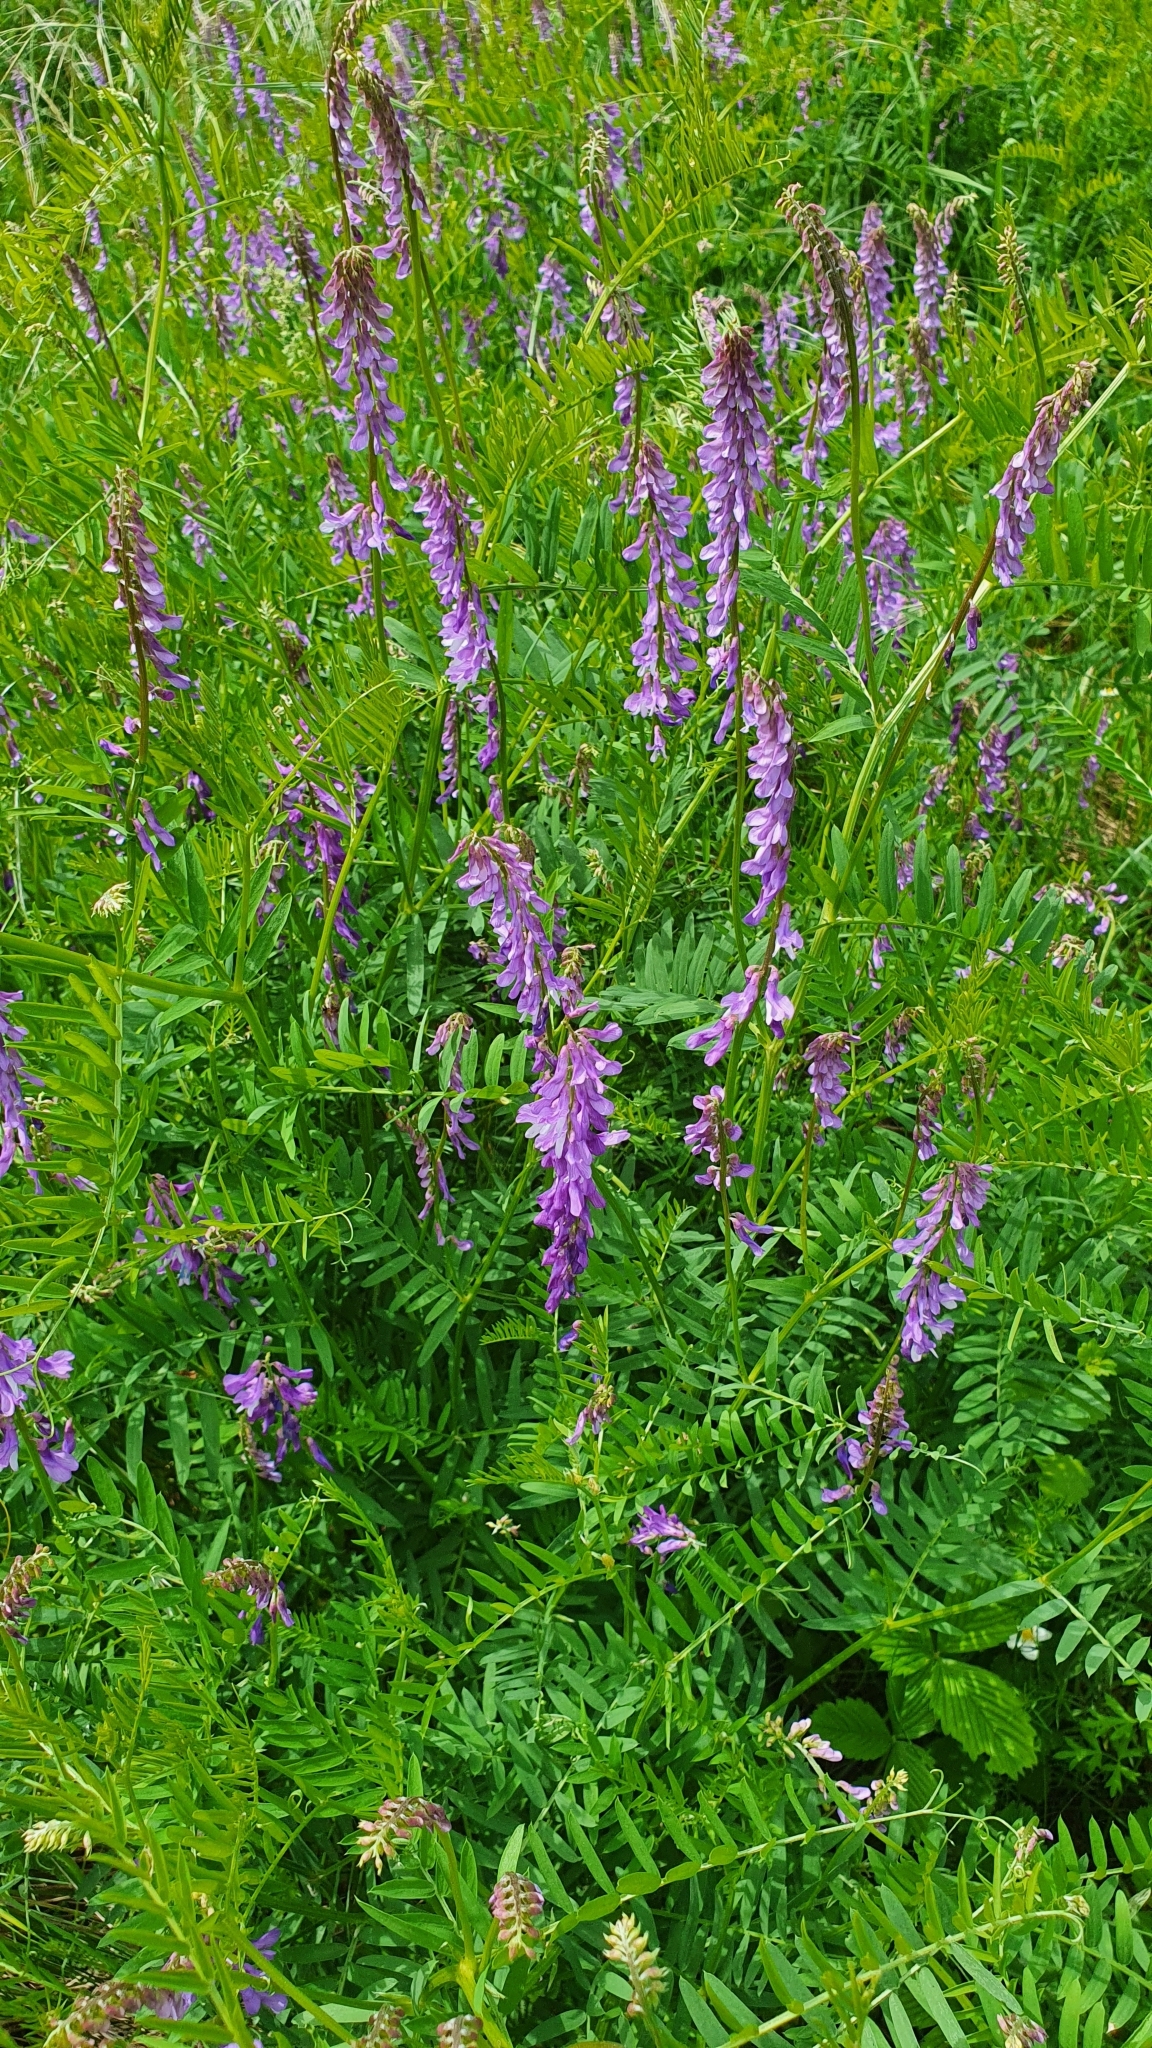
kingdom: Plantae
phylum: Tracheophyta
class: Magnoliopsida
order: Fabales
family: Fabaceae
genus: Vicia
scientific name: Vicia tenuifolia
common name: Fine-leaved vetch
